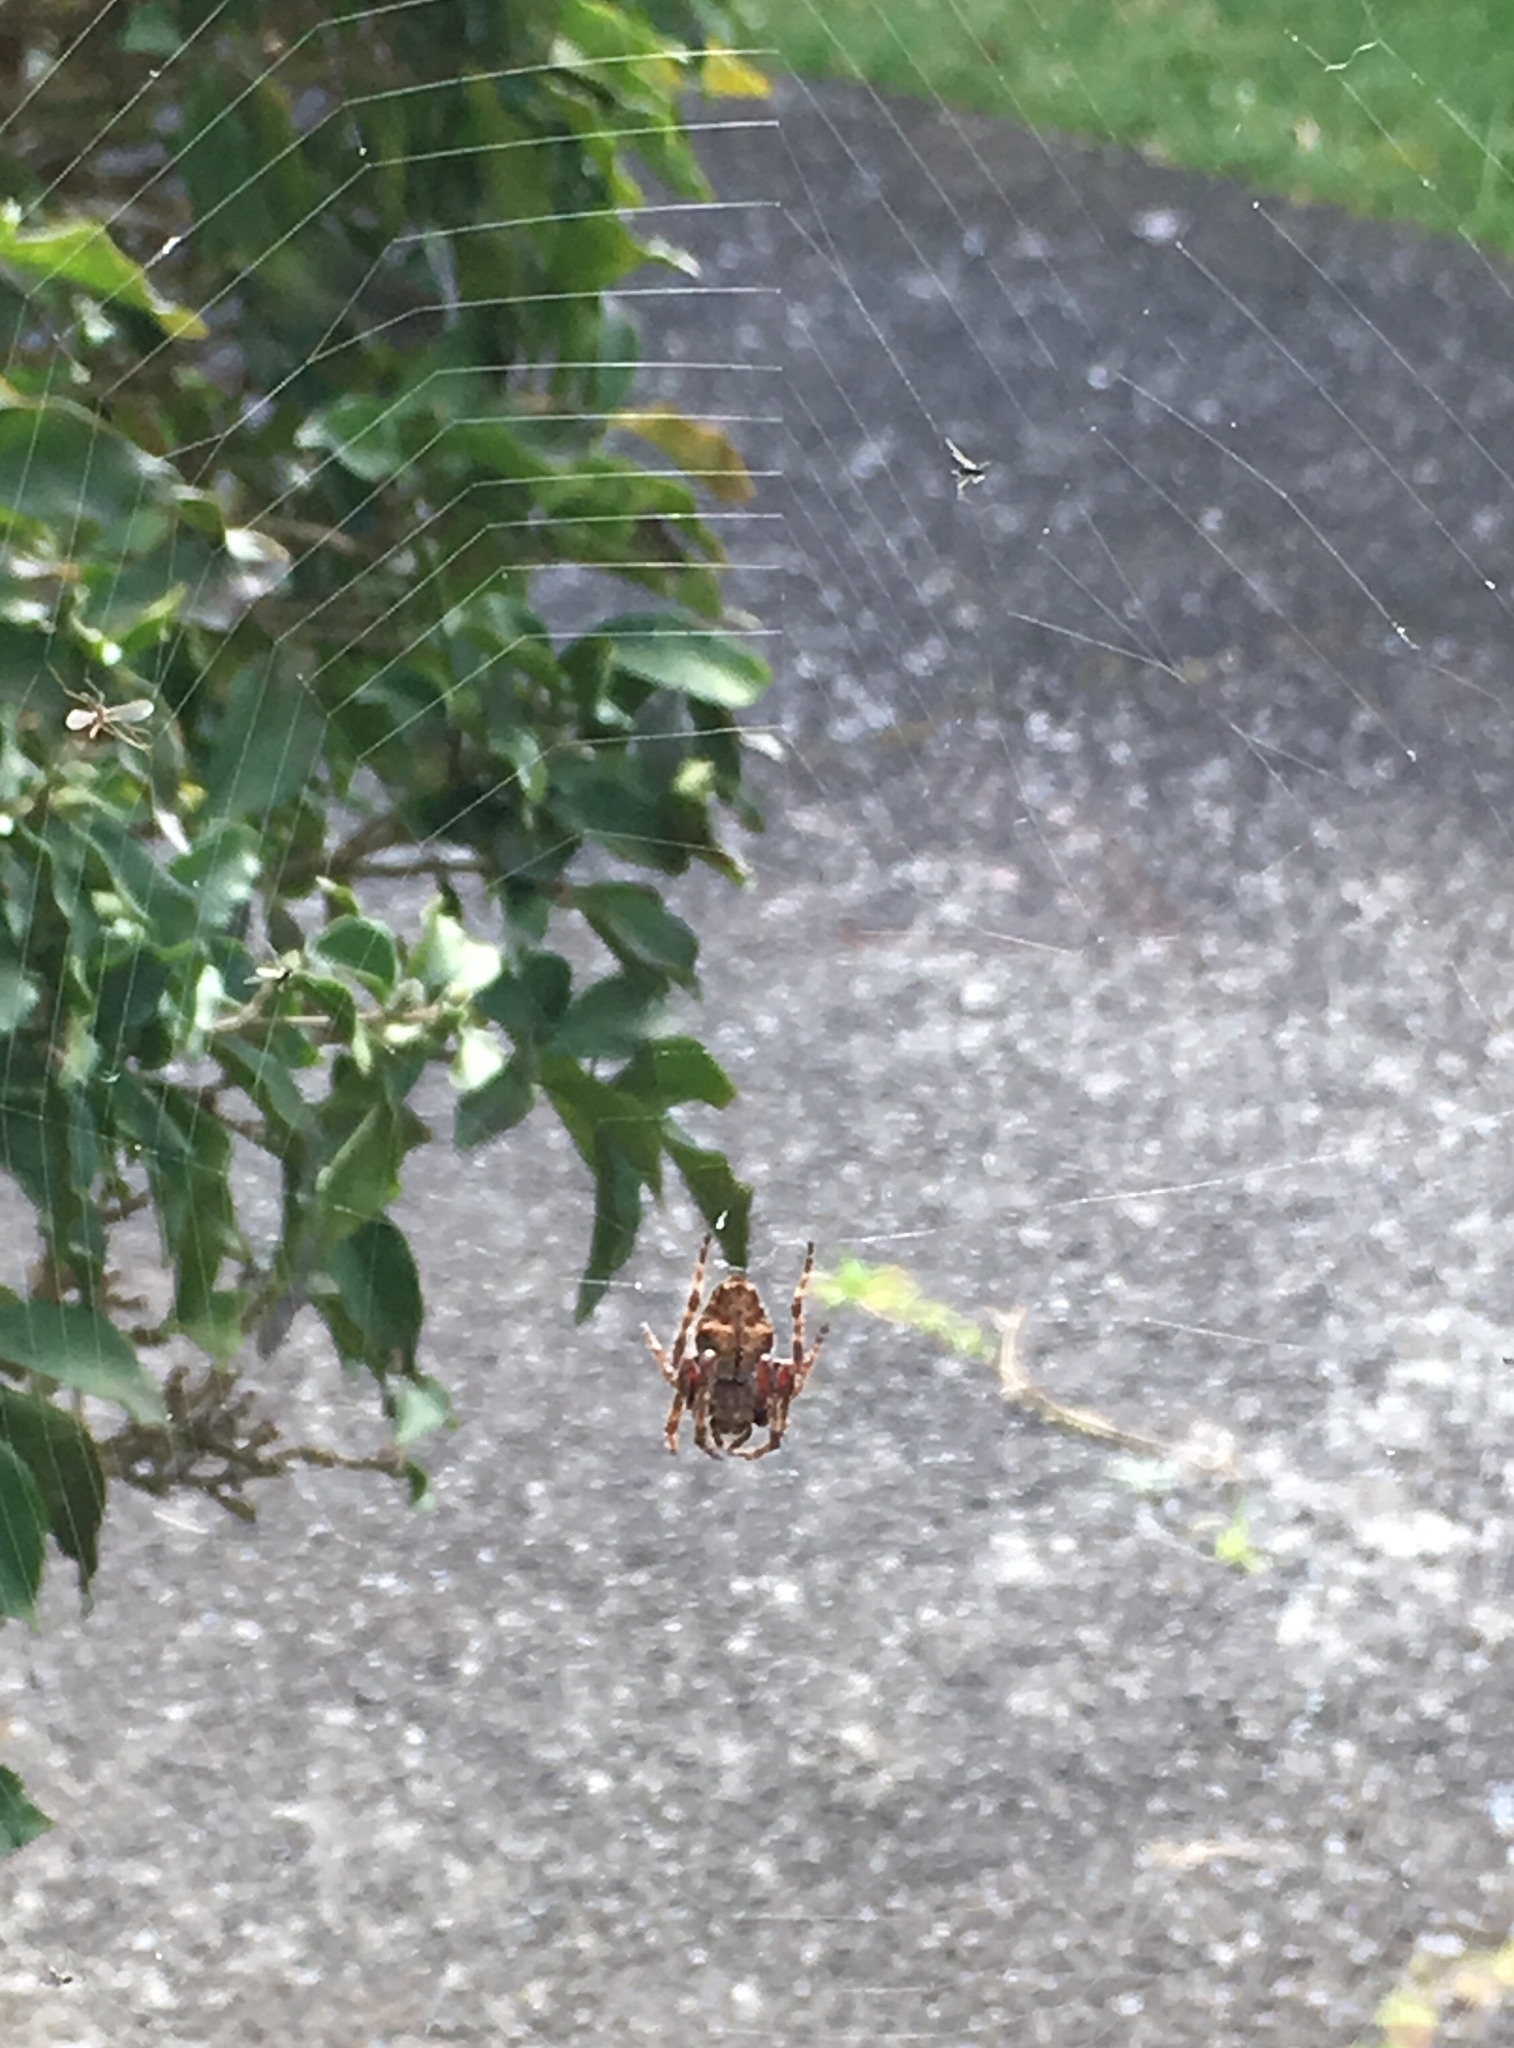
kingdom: Animalia
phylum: Arthropoda
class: Arachnida
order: Araneae
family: Araneidae
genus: Eriophora
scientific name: Eriophora pustulosa
